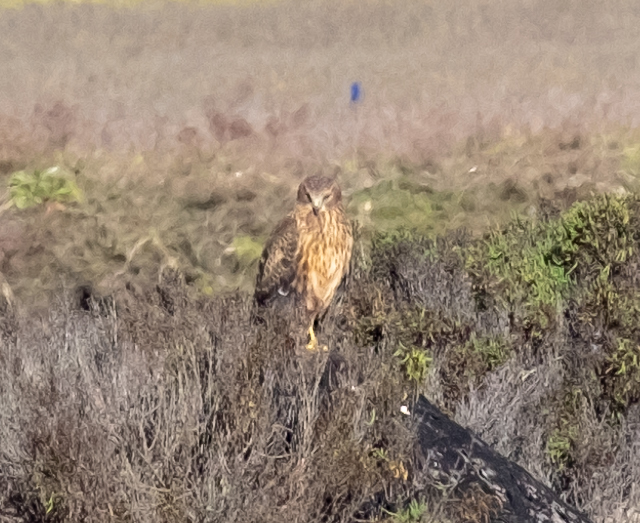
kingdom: Animalia
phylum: Chordata
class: Aves
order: Accipitriformes
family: Accipitridae
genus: Circus
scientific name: Circus cyaneus
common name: Hen harrier
